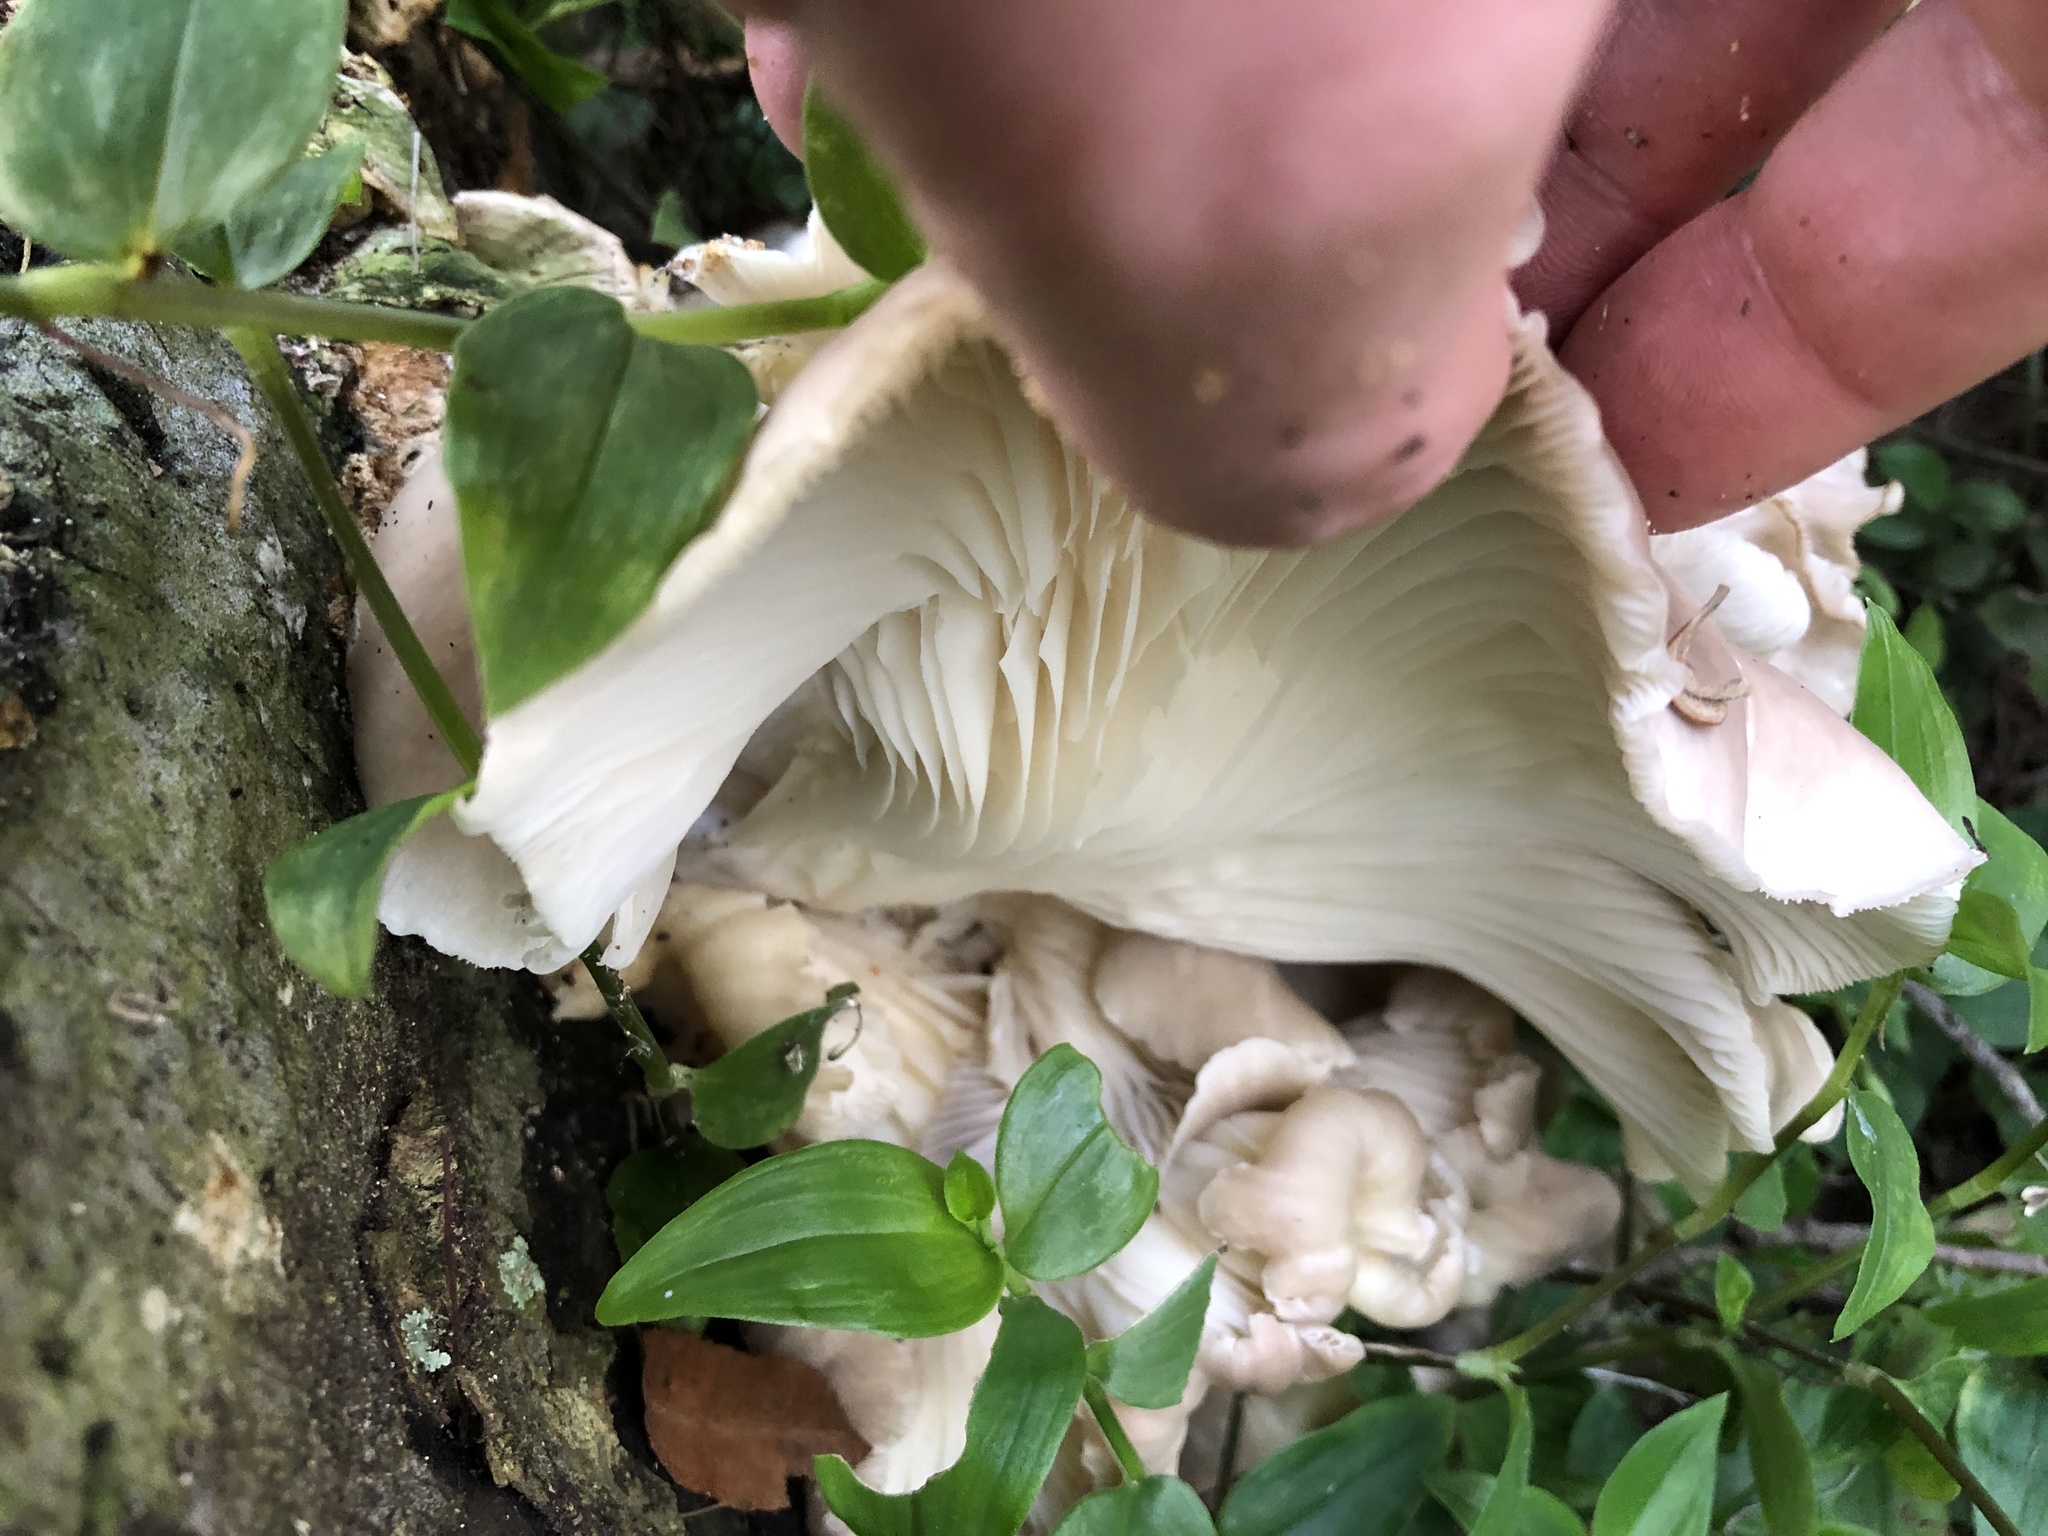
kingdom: Fungi
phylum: Basidiomycota
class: Agaricomycetes
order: Agaricales
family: Pleurotaceae
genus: Pleurotus
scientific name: Pleurotus ostreatus
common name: Oyster mushroom
